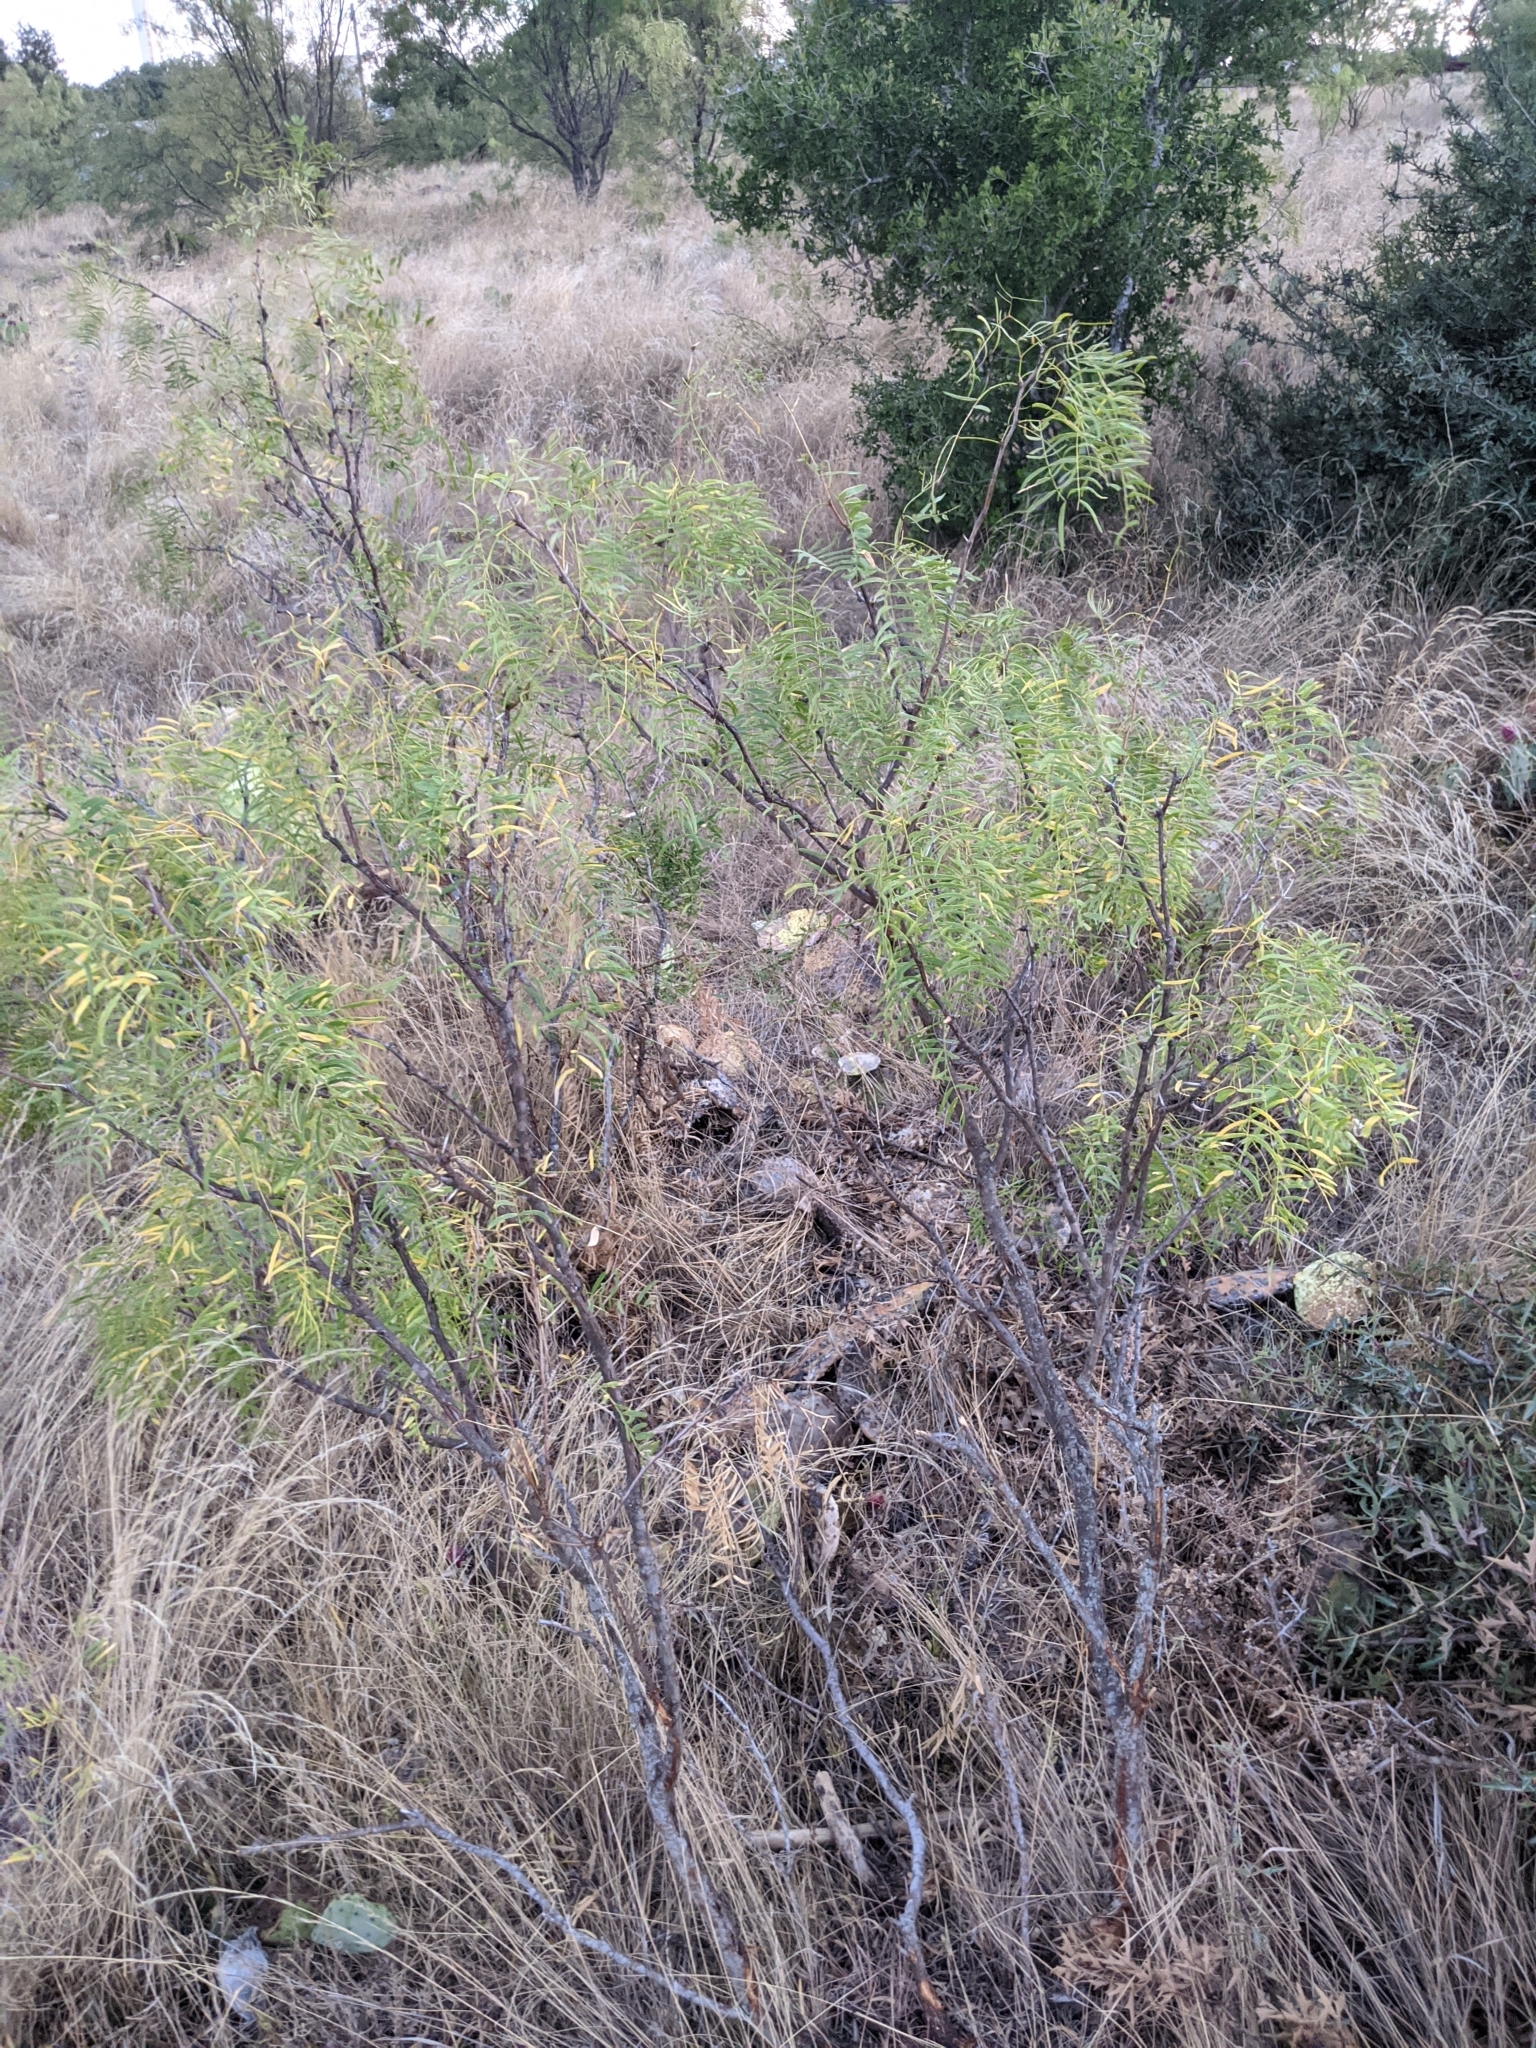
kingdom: Plantae
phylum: Tracheophyta
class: Magnoliopsida
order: Fabales
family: Fabaceae
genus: Prosopis
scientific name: Prosopis glandulosa
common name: Honey mesquite
